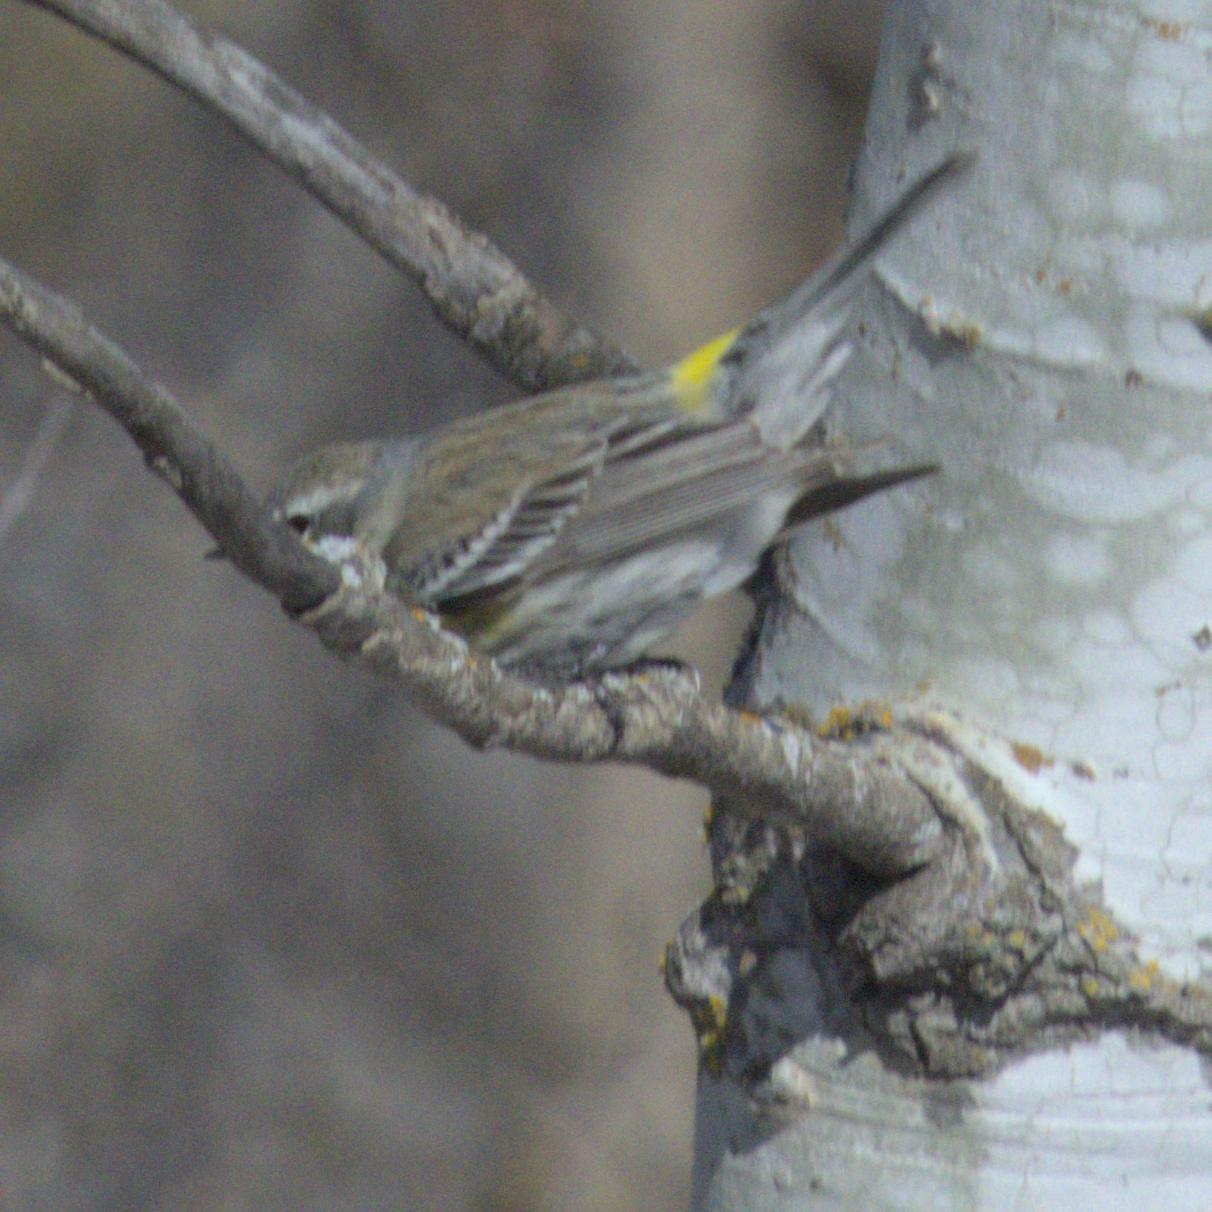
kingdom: Animalia
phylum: Chordata
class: Aves
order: Passeriformes
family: Parulidae
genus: Setophaga
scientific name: Setophaga coronata
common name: Myrtle warbler
